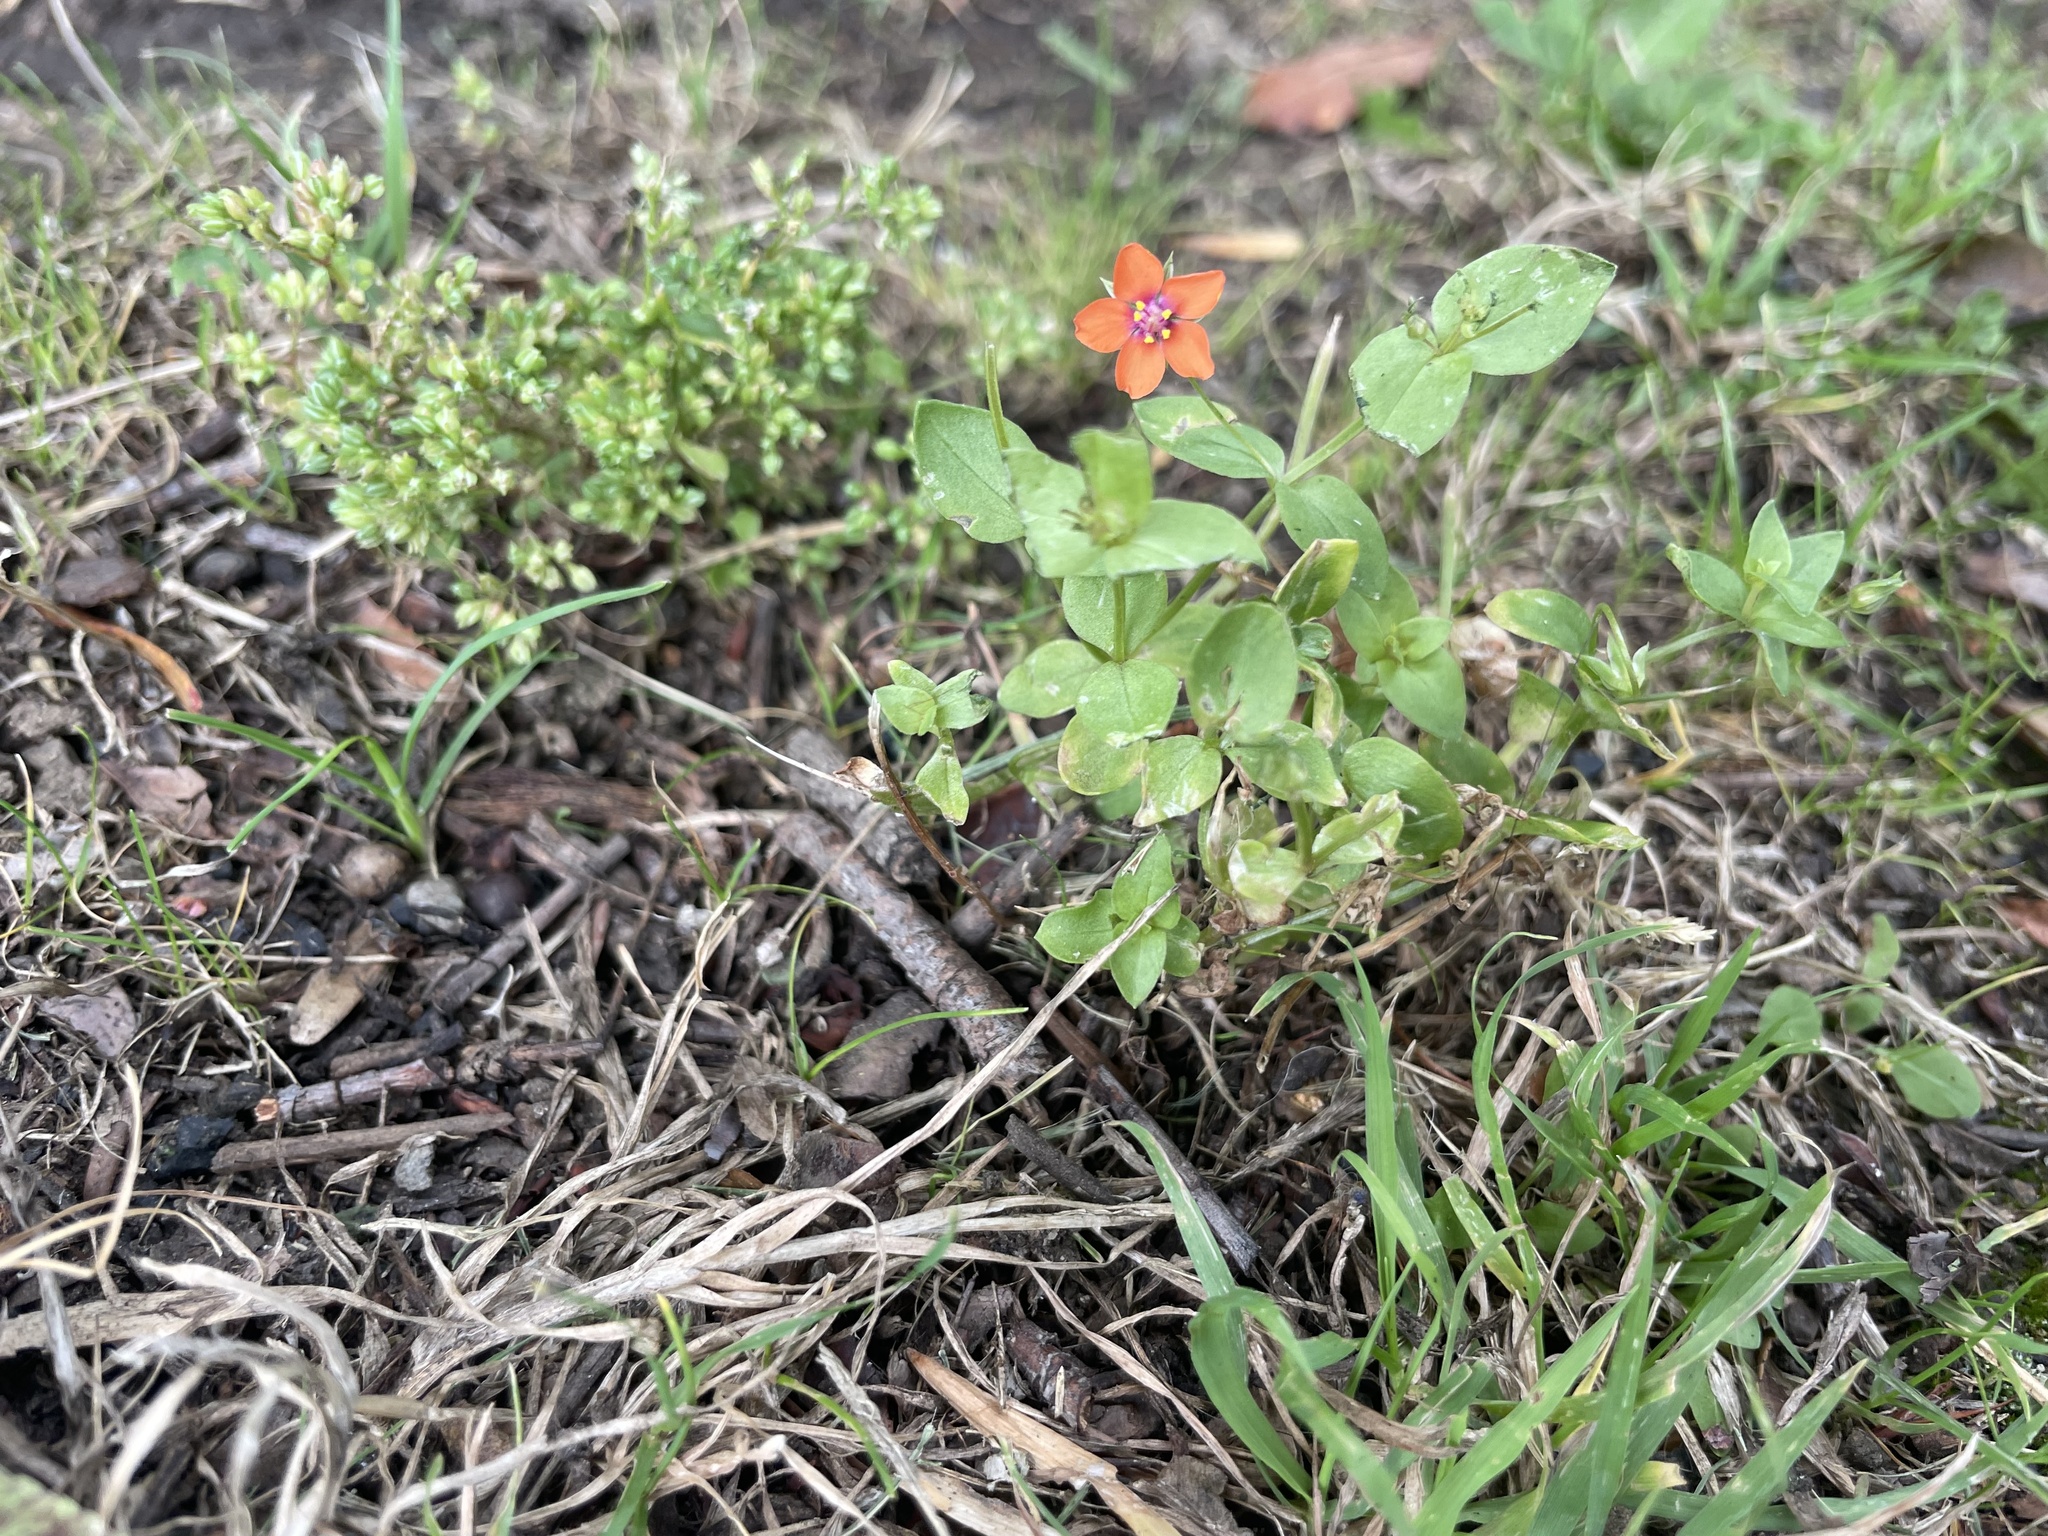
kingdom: Plantae
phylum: Tracheophyta
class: Magnoliopsida
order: Ericales
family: Primulaceae
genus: Lysimachia
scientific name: Lysimachia arvensis
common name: Scarlet pimpernel
